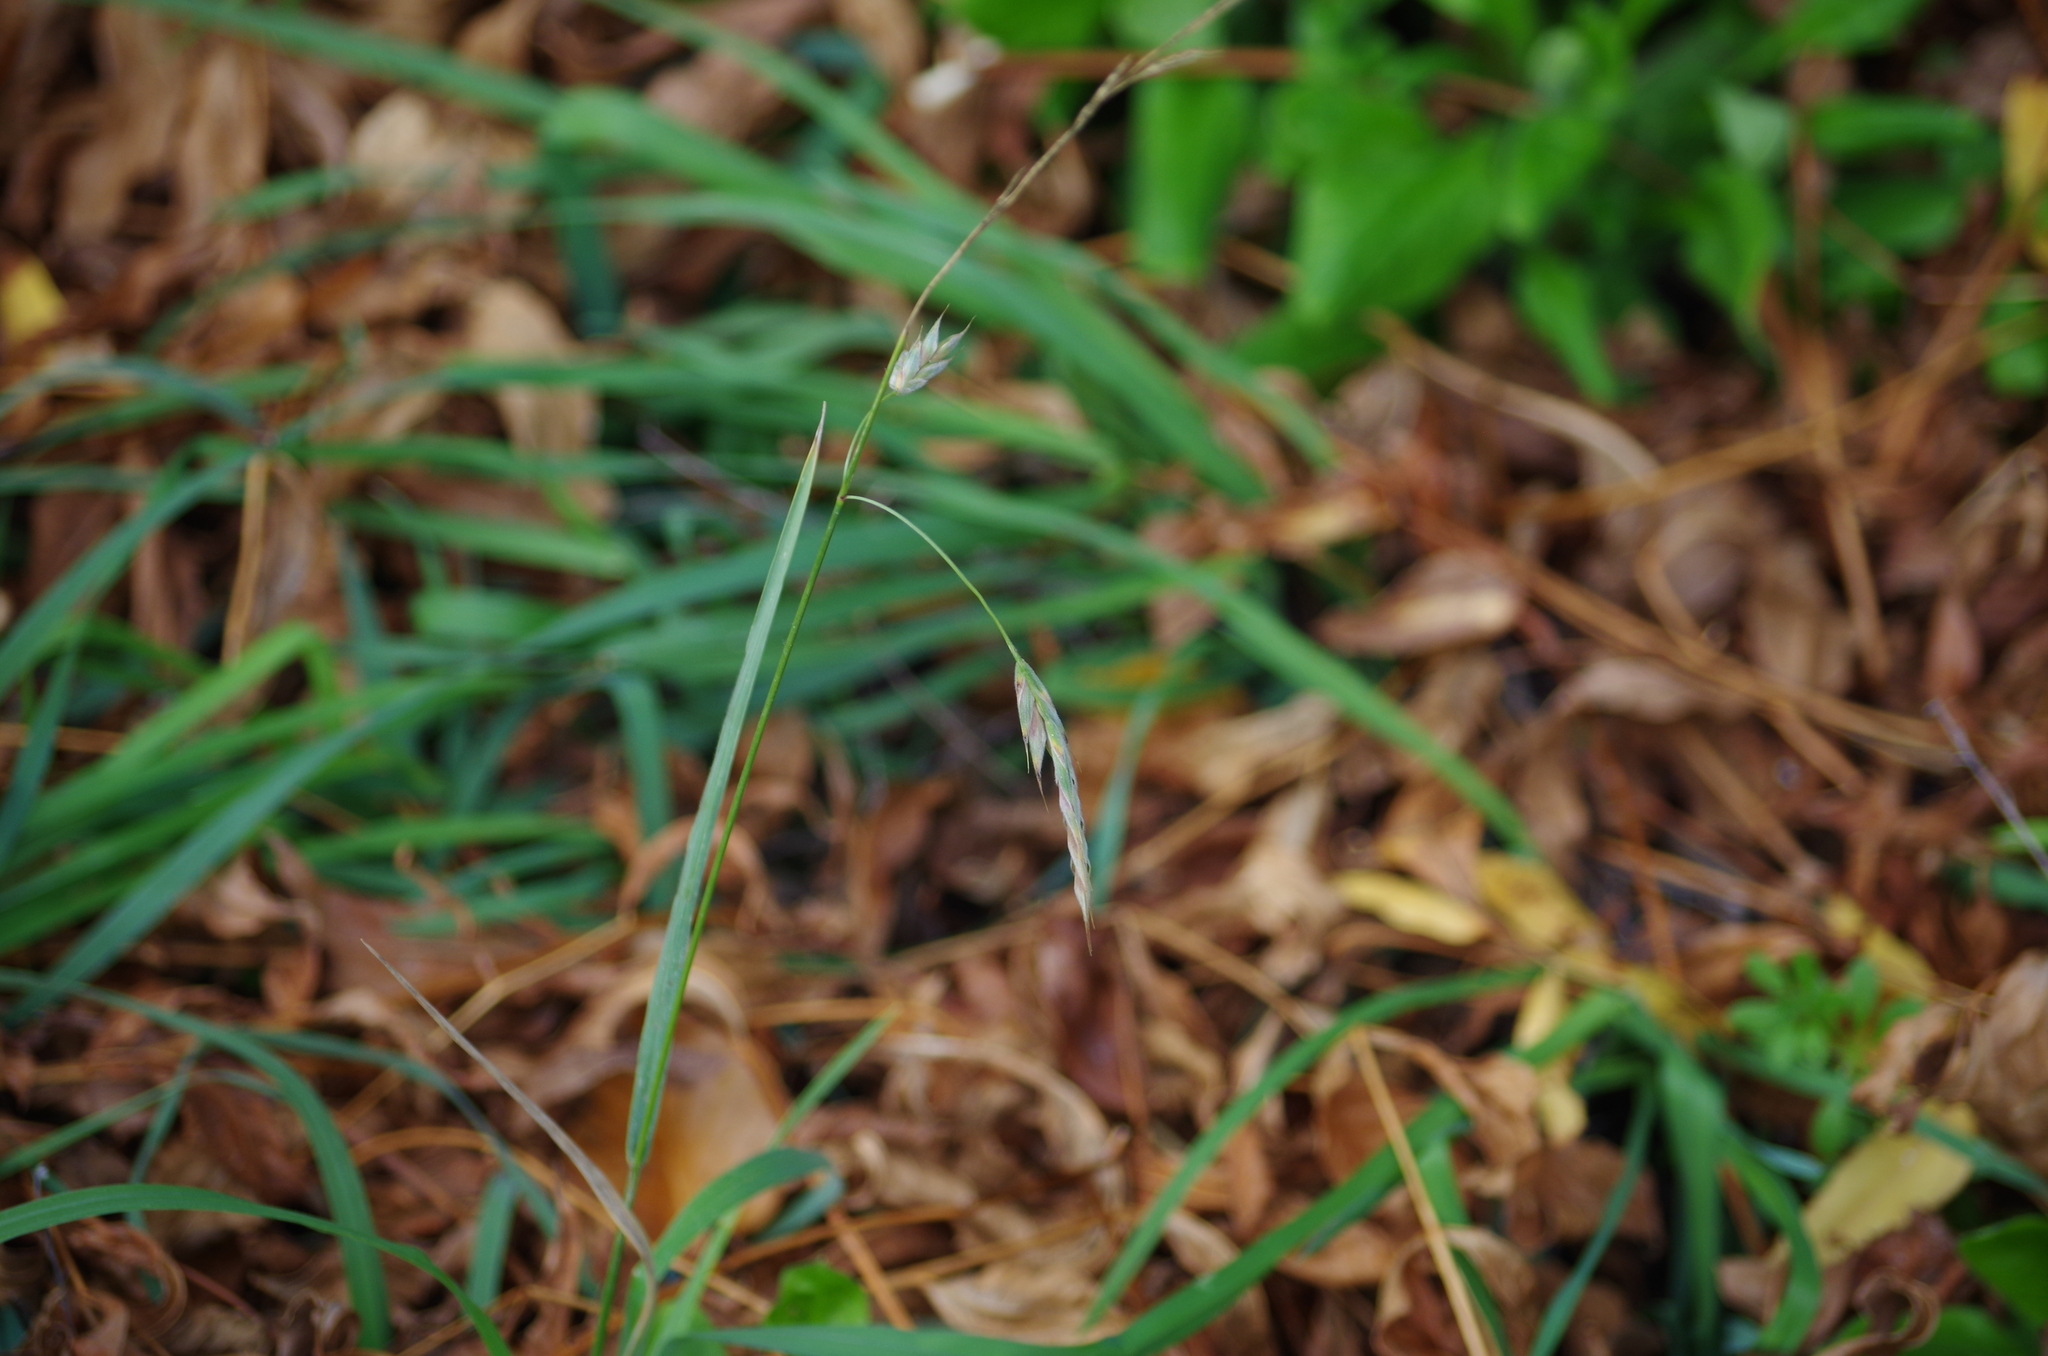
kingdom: Plantae
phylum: Tracheophyta
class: Liliopsida
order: Poales
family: Poaceae
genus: Bromus
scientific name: Bromus catharticus
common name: Rescuegrass
